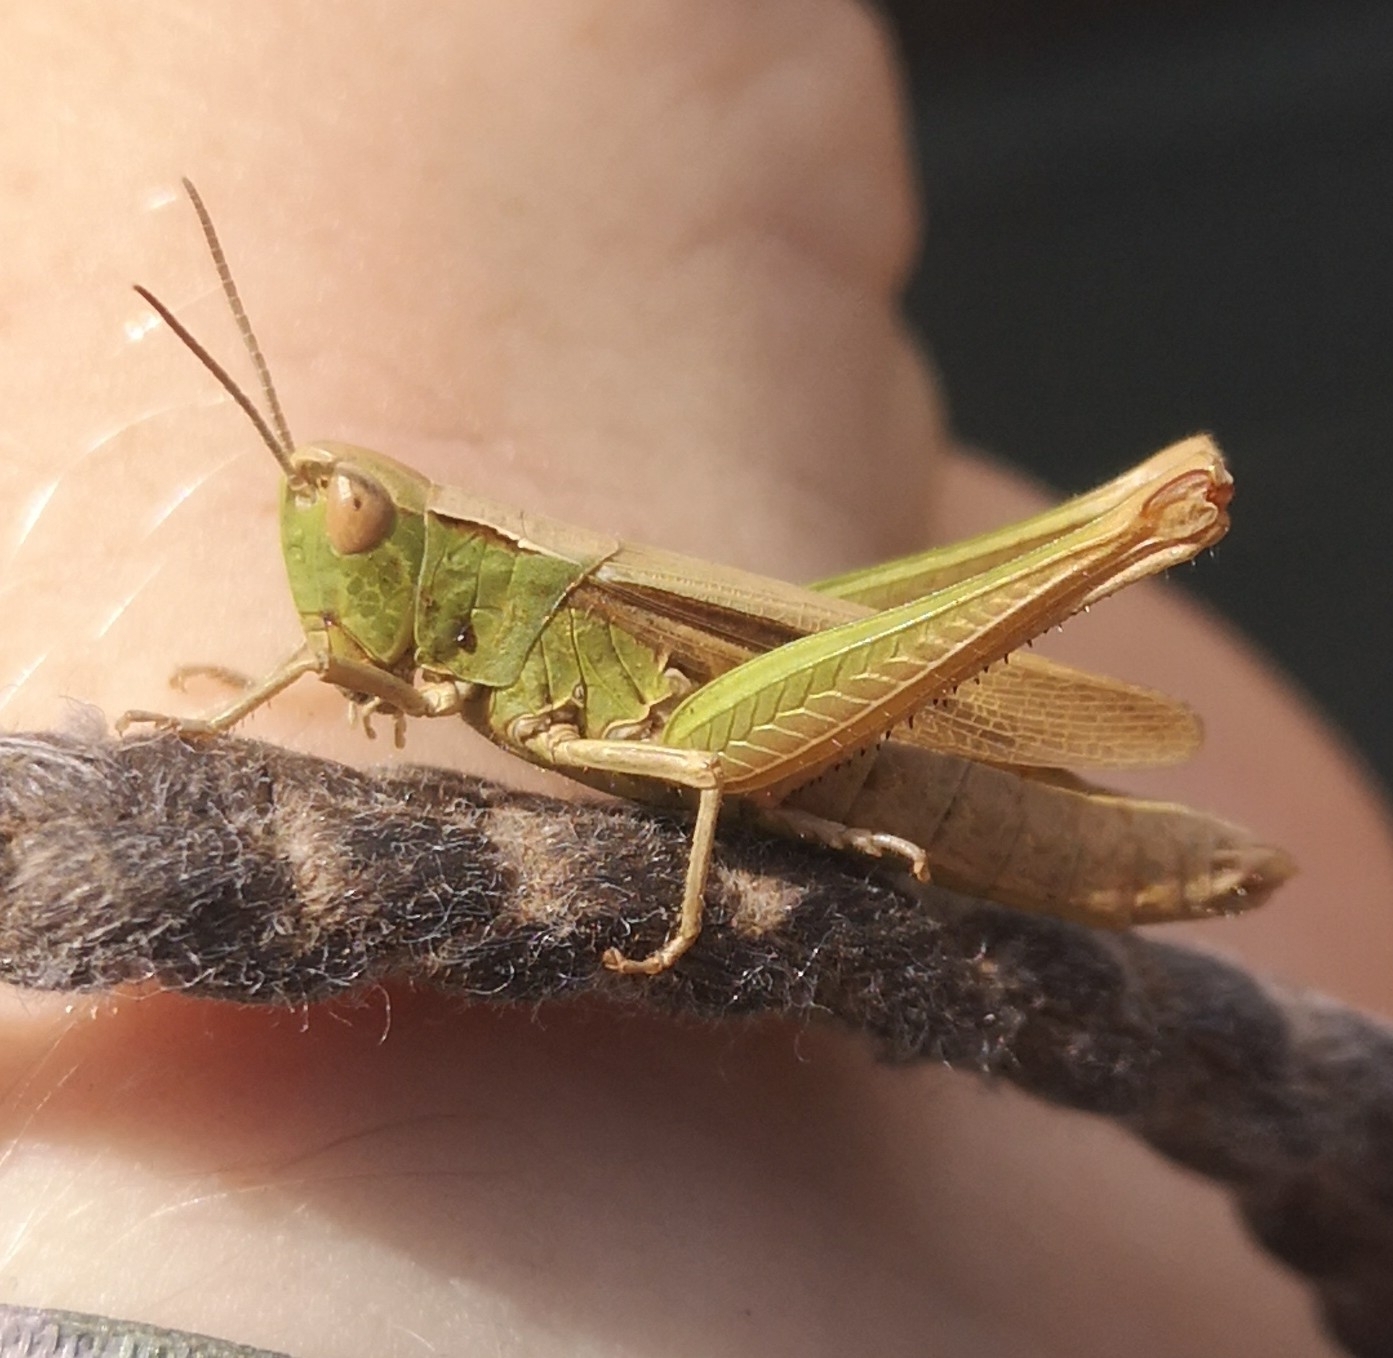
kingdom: Animalia
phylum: Arthropoda
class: Insecta
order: Orthoptera
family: Acrididae
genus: Chorthippus
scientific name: Chorthippus dorsatus
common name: Steppe grasshopper
